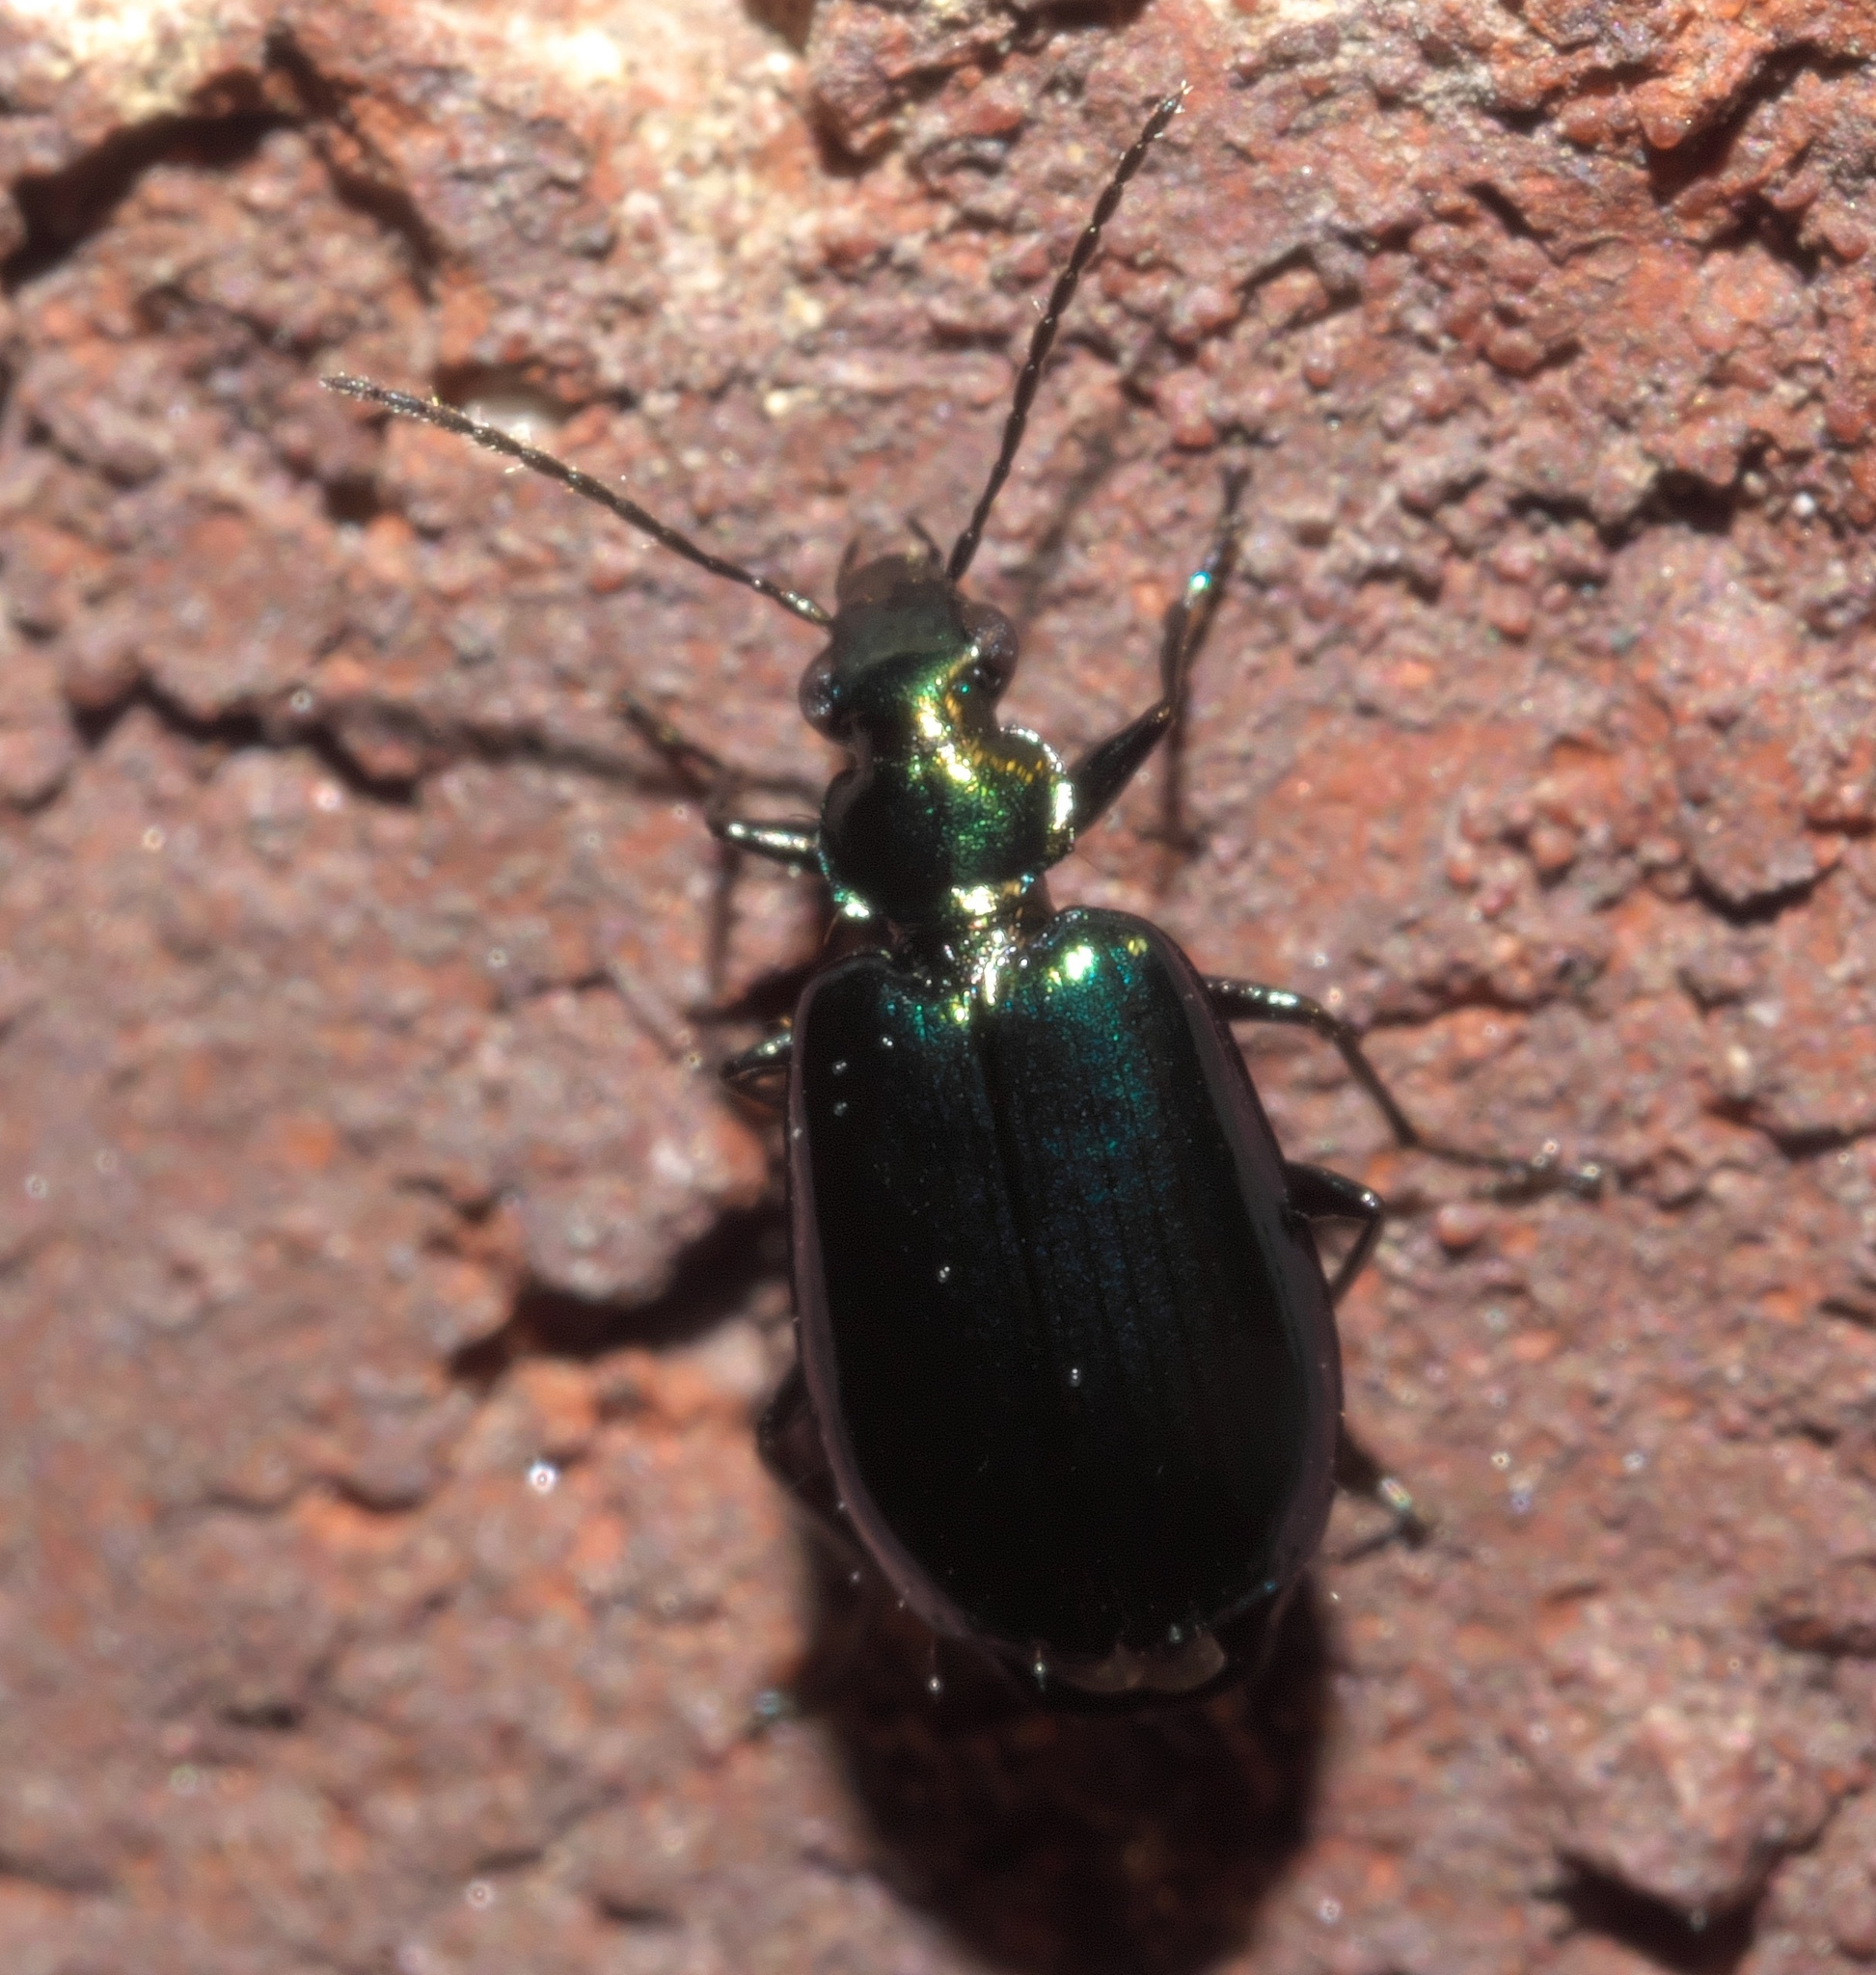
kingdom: Animalia
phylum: Arthropoda
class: Insecta
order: Coleoptera
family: Carabidae
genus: Lebia
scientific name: Lebia viridis
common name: Flower lebia beetle
